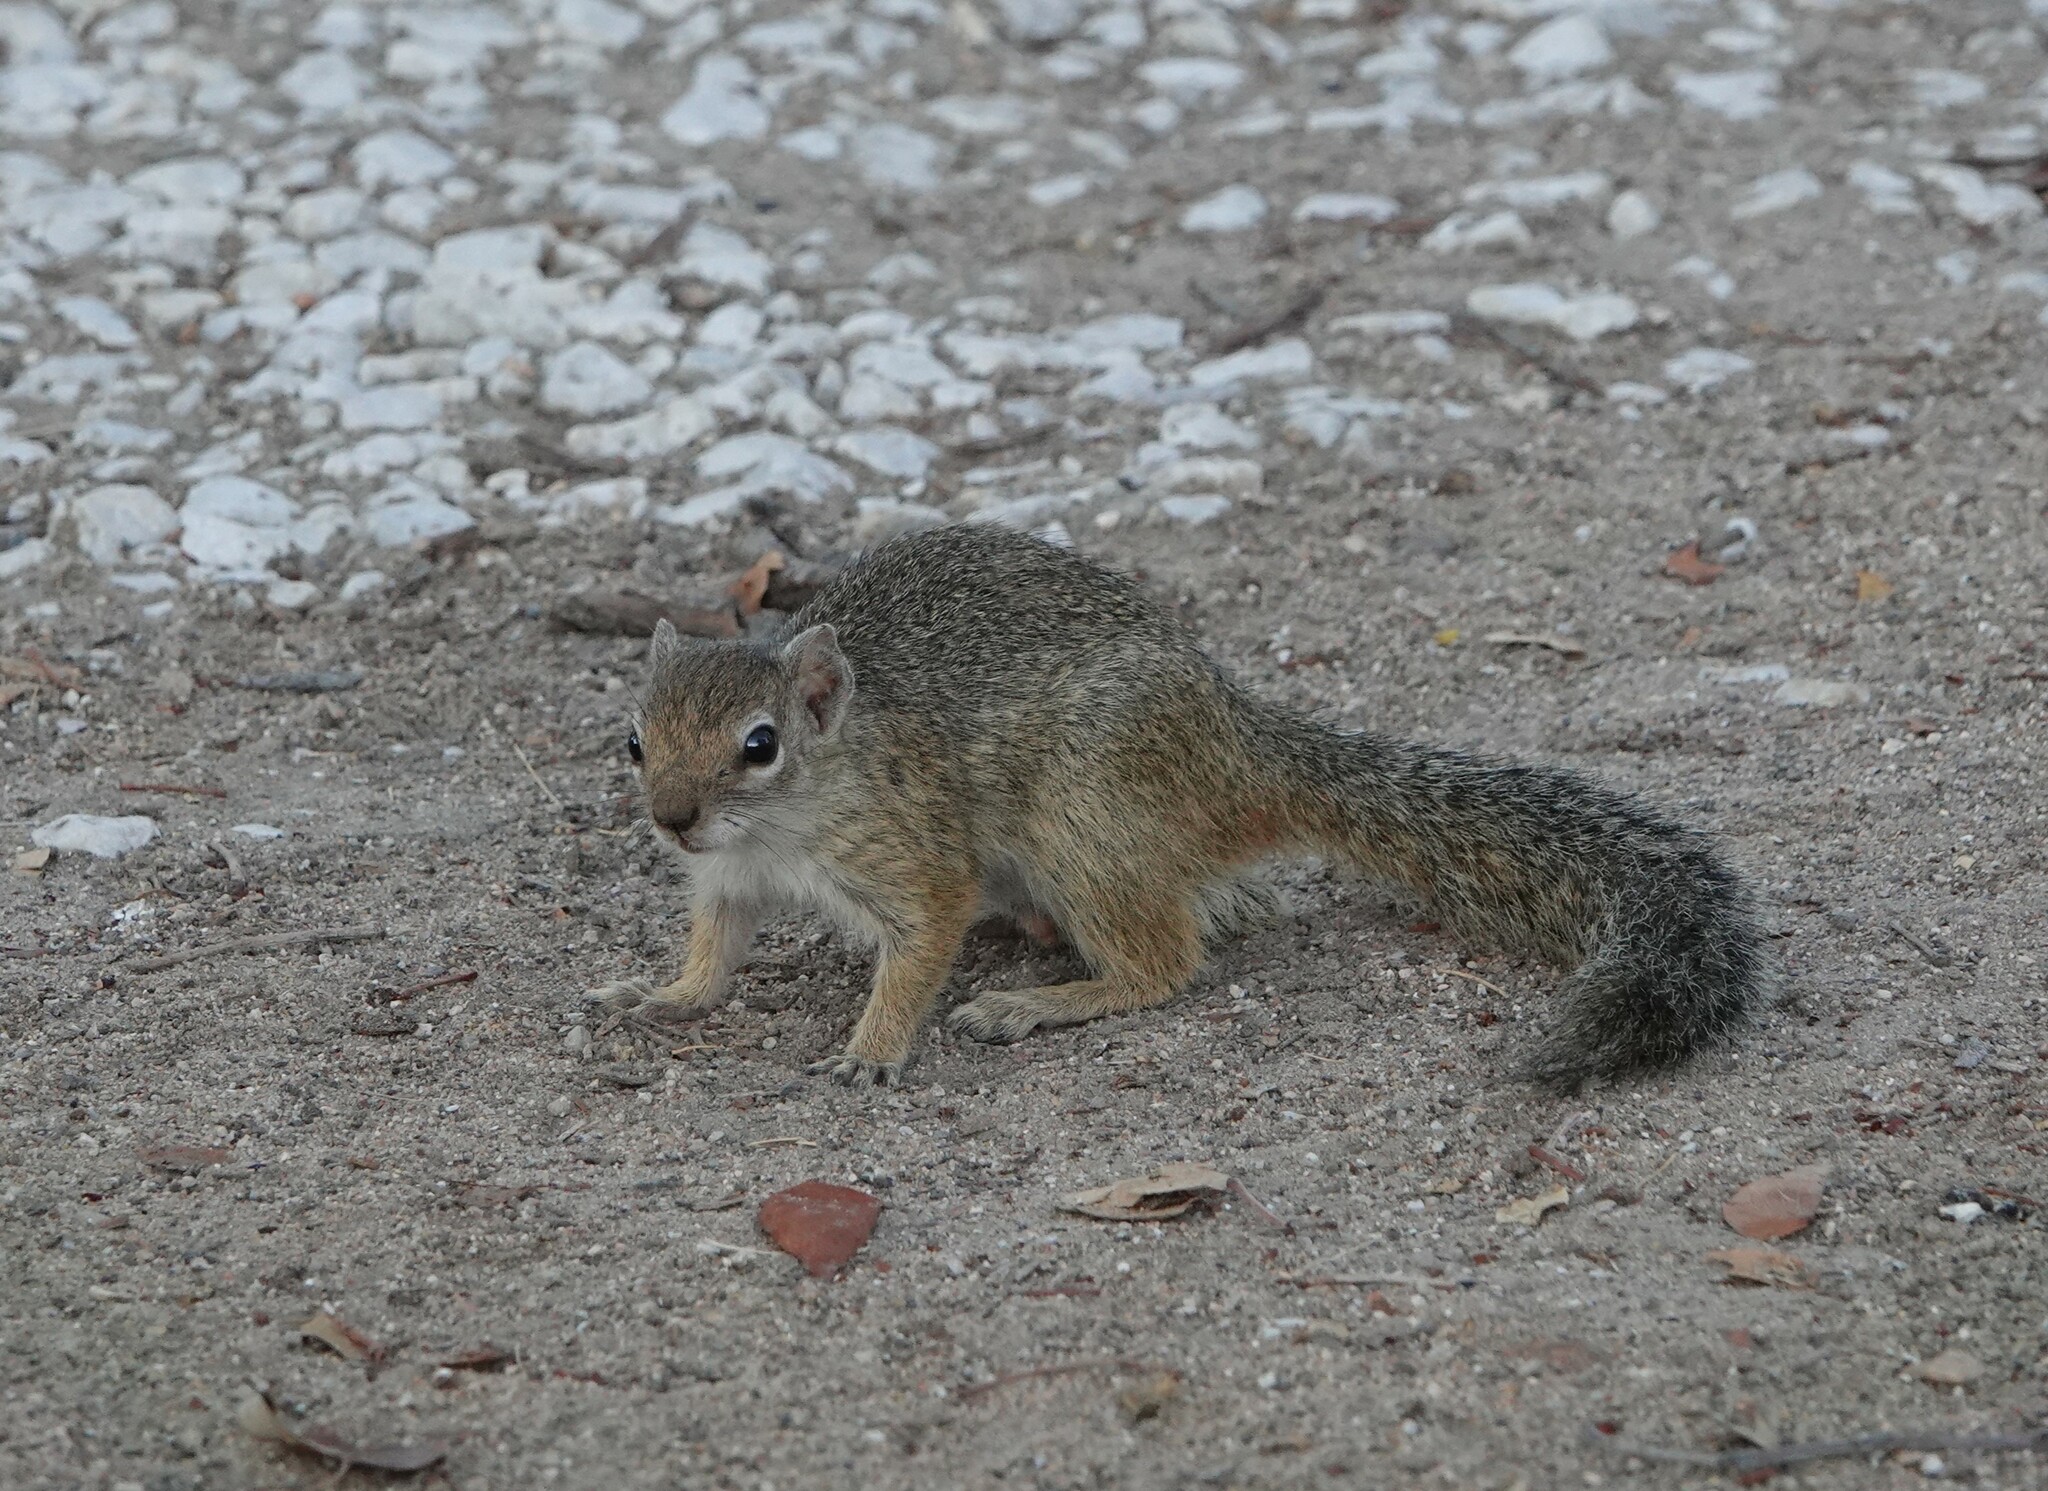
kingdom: Animalia
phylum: Chordata
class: Mammalia
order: Rodentia
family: Sciuridae
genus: Paraxerus
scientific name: Paraxerus cepapi
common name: Smith's bush squirrel
